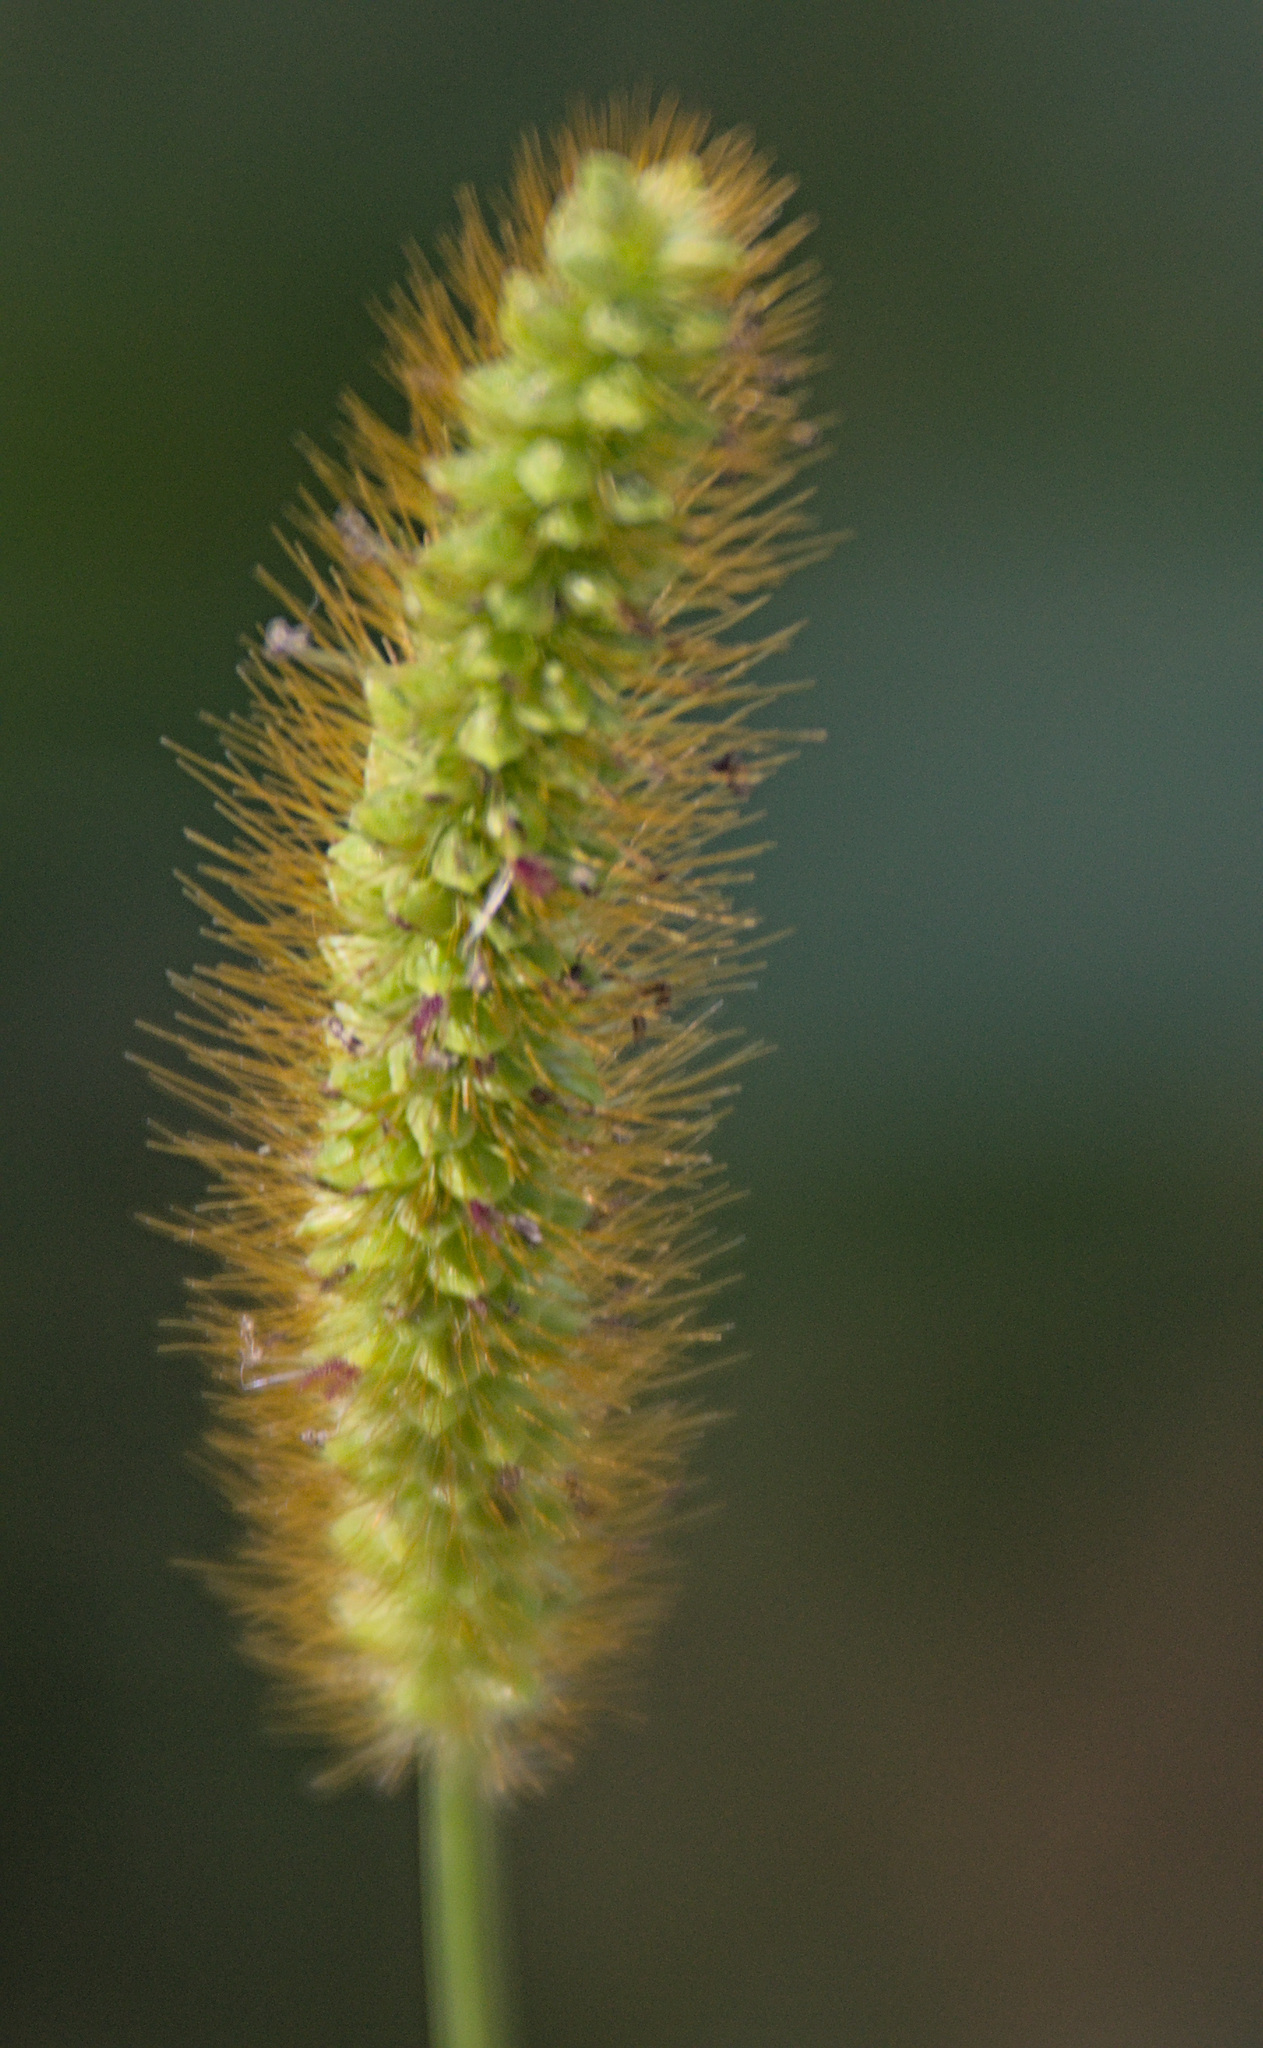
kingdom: Plantae
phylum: Tracheophyta
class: Liliopsida
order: Poales
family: Poaceae
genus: Setaria
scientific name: Setaria pumila
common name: Yellow bristle-grass
